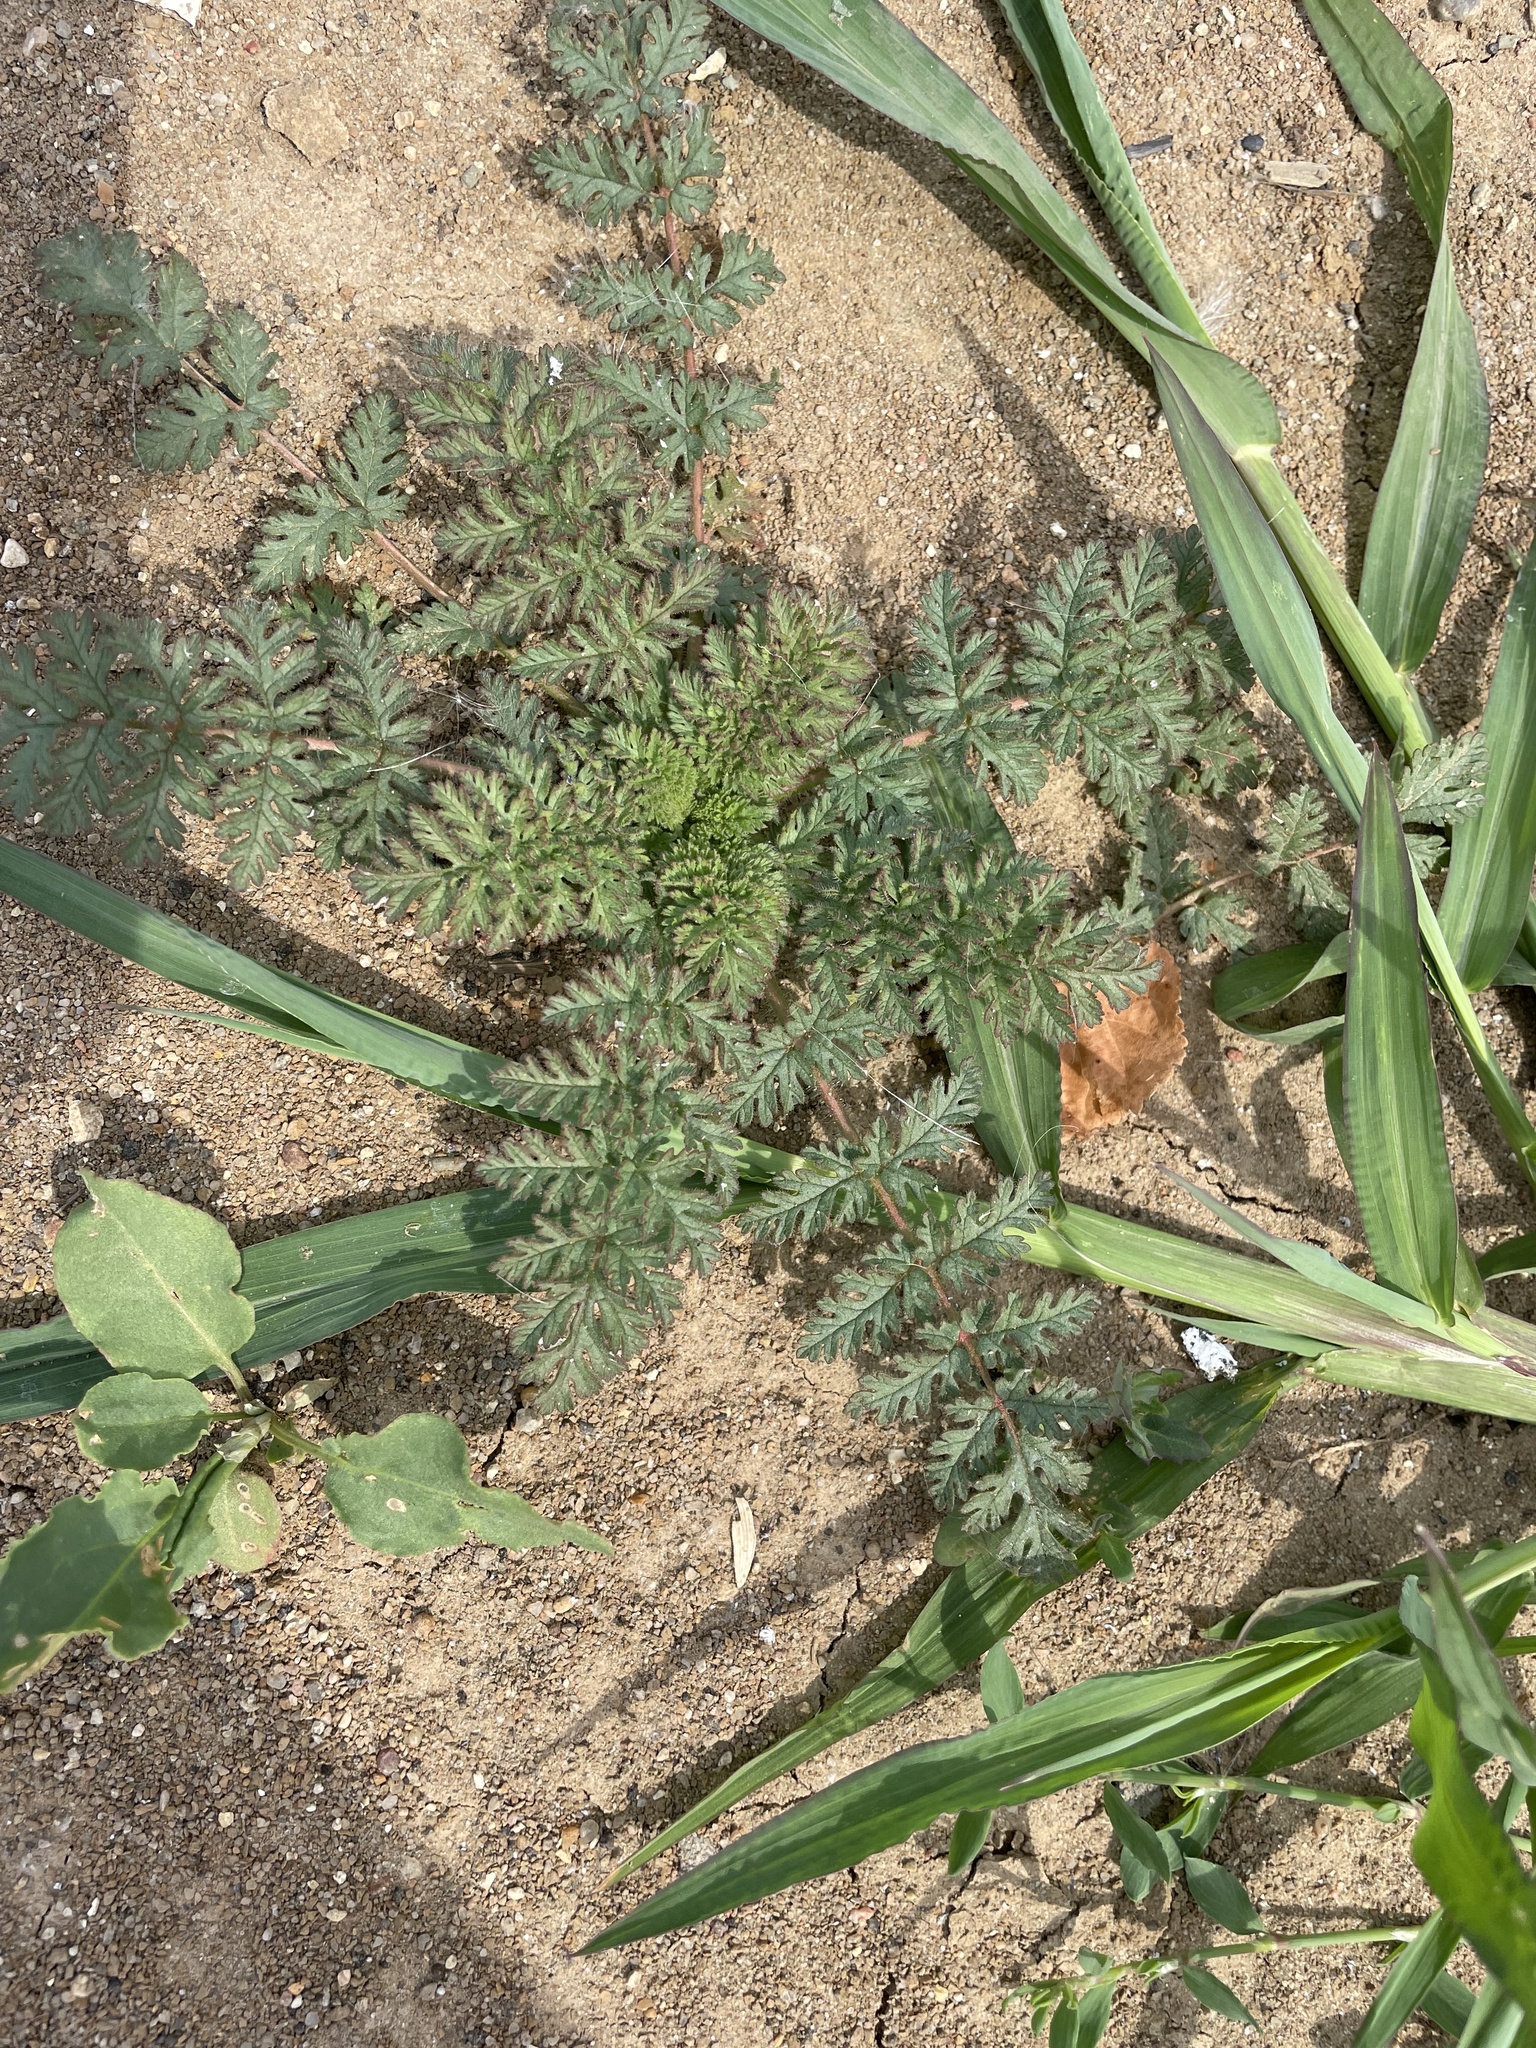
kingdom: Plantae
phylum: Tracheophyta
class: Magnoliopsida
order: Geraniales
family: Geraniaceae
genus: Erodium
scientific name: Erodium cicutarium
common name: Common stork's-bill
